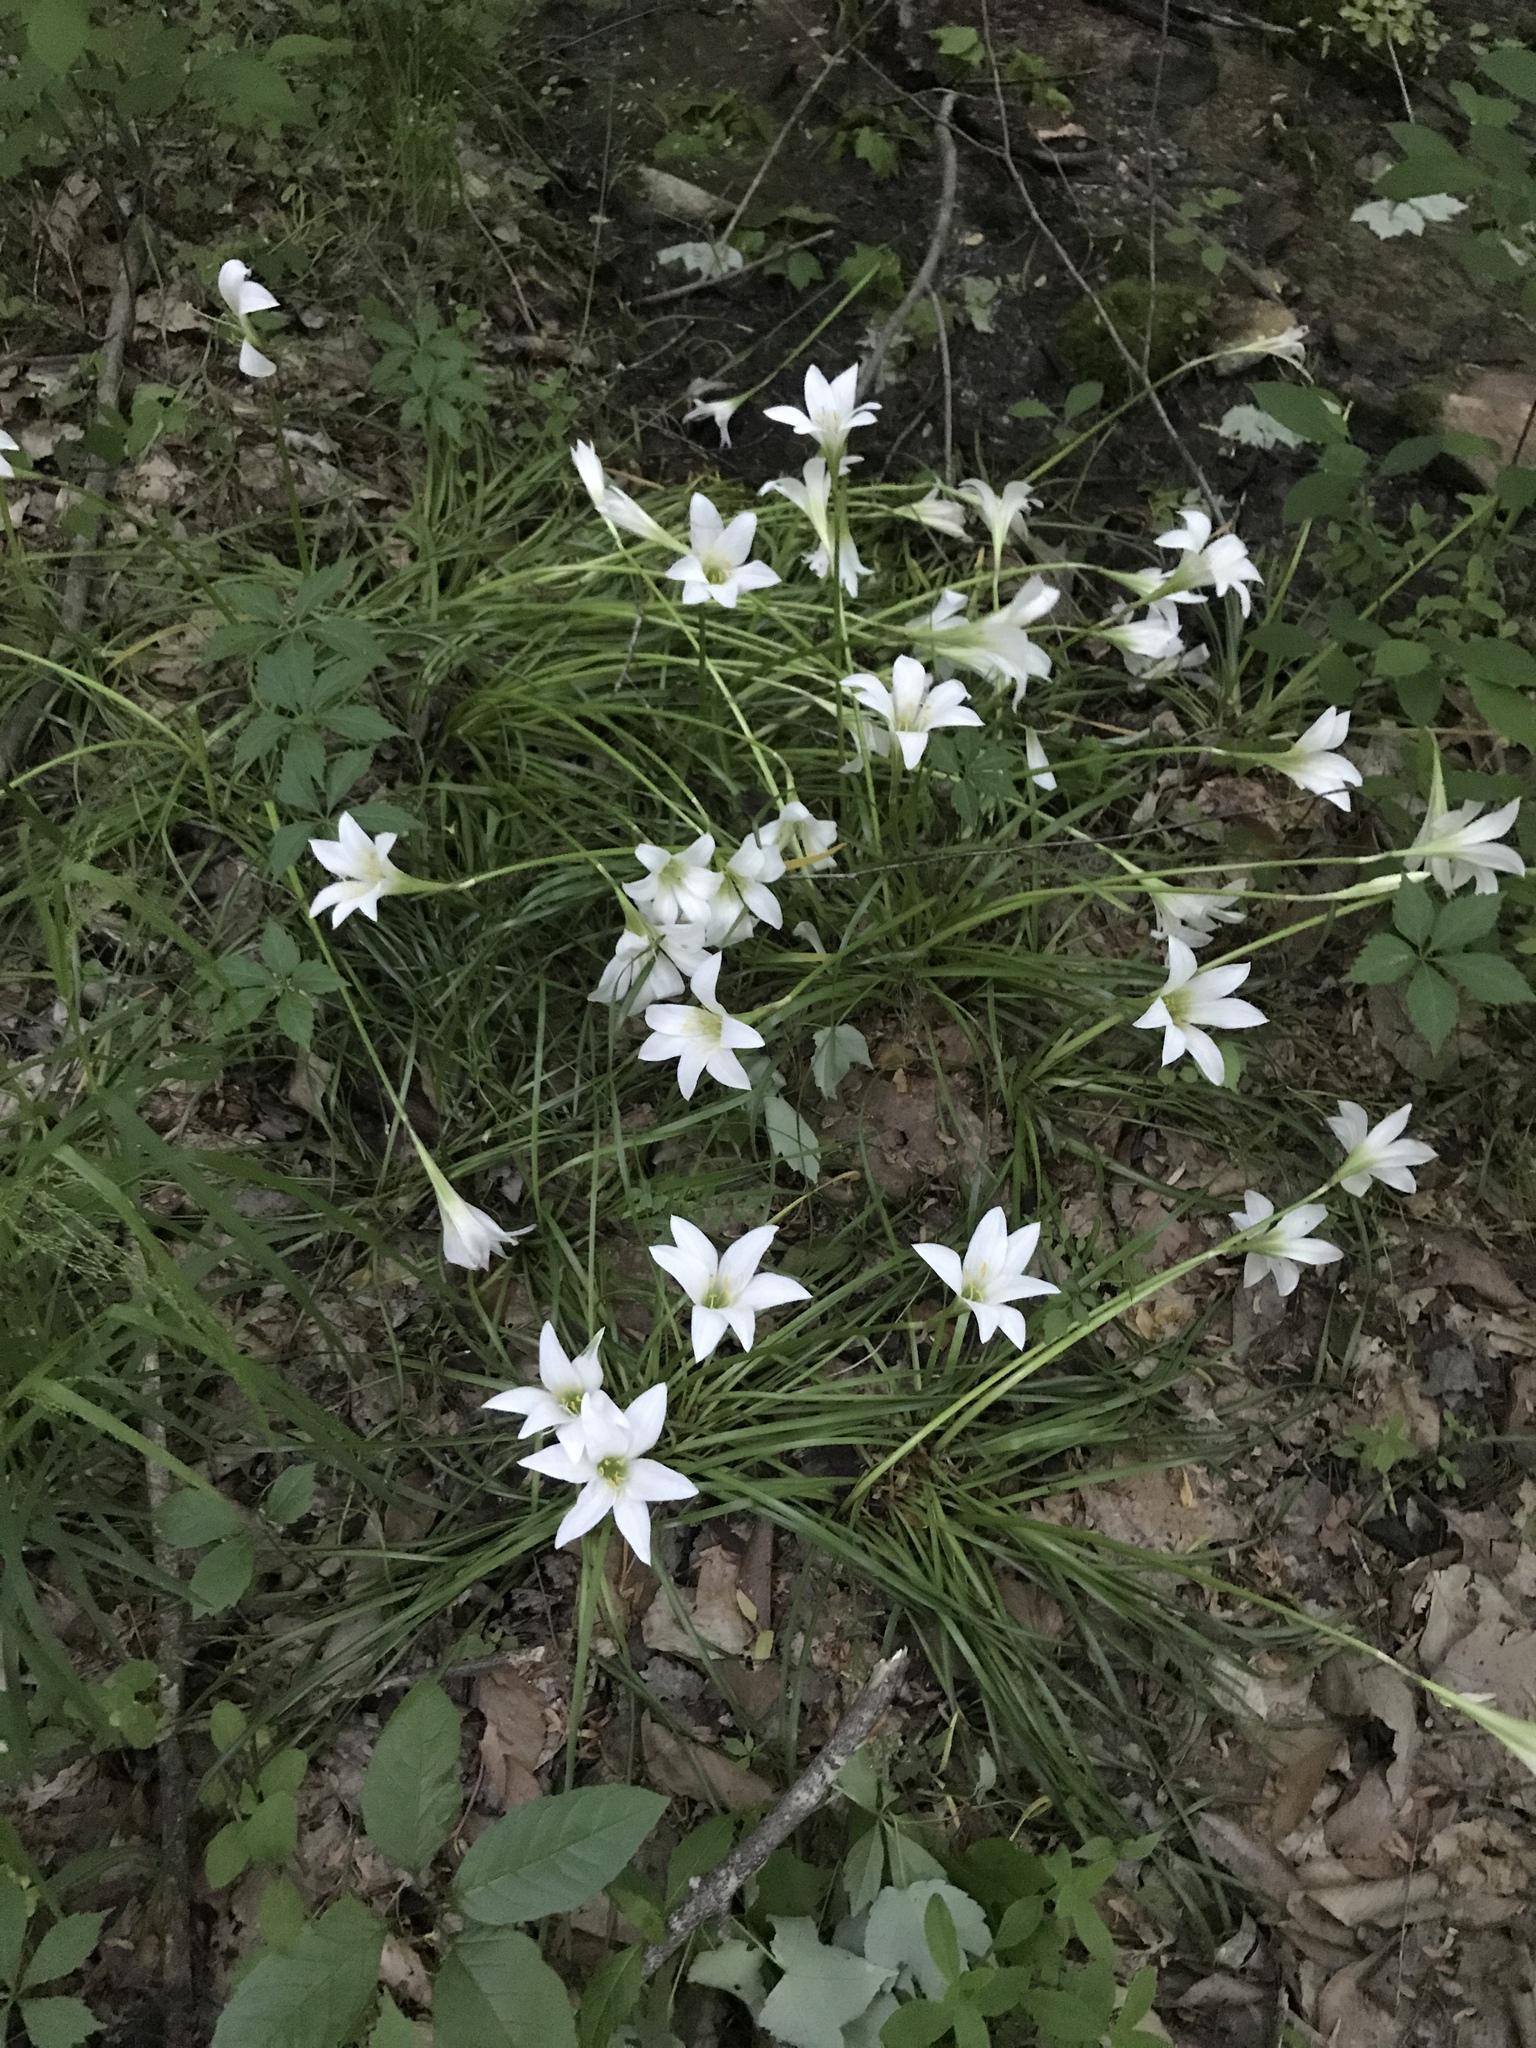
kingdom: Plantae
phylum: Tracheophyta
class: Liliopsida
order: Asparagales
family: Amaryllidaceae
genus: Zephyranthes
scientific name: Zephyranthes atamasco
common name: Atamasco lily
